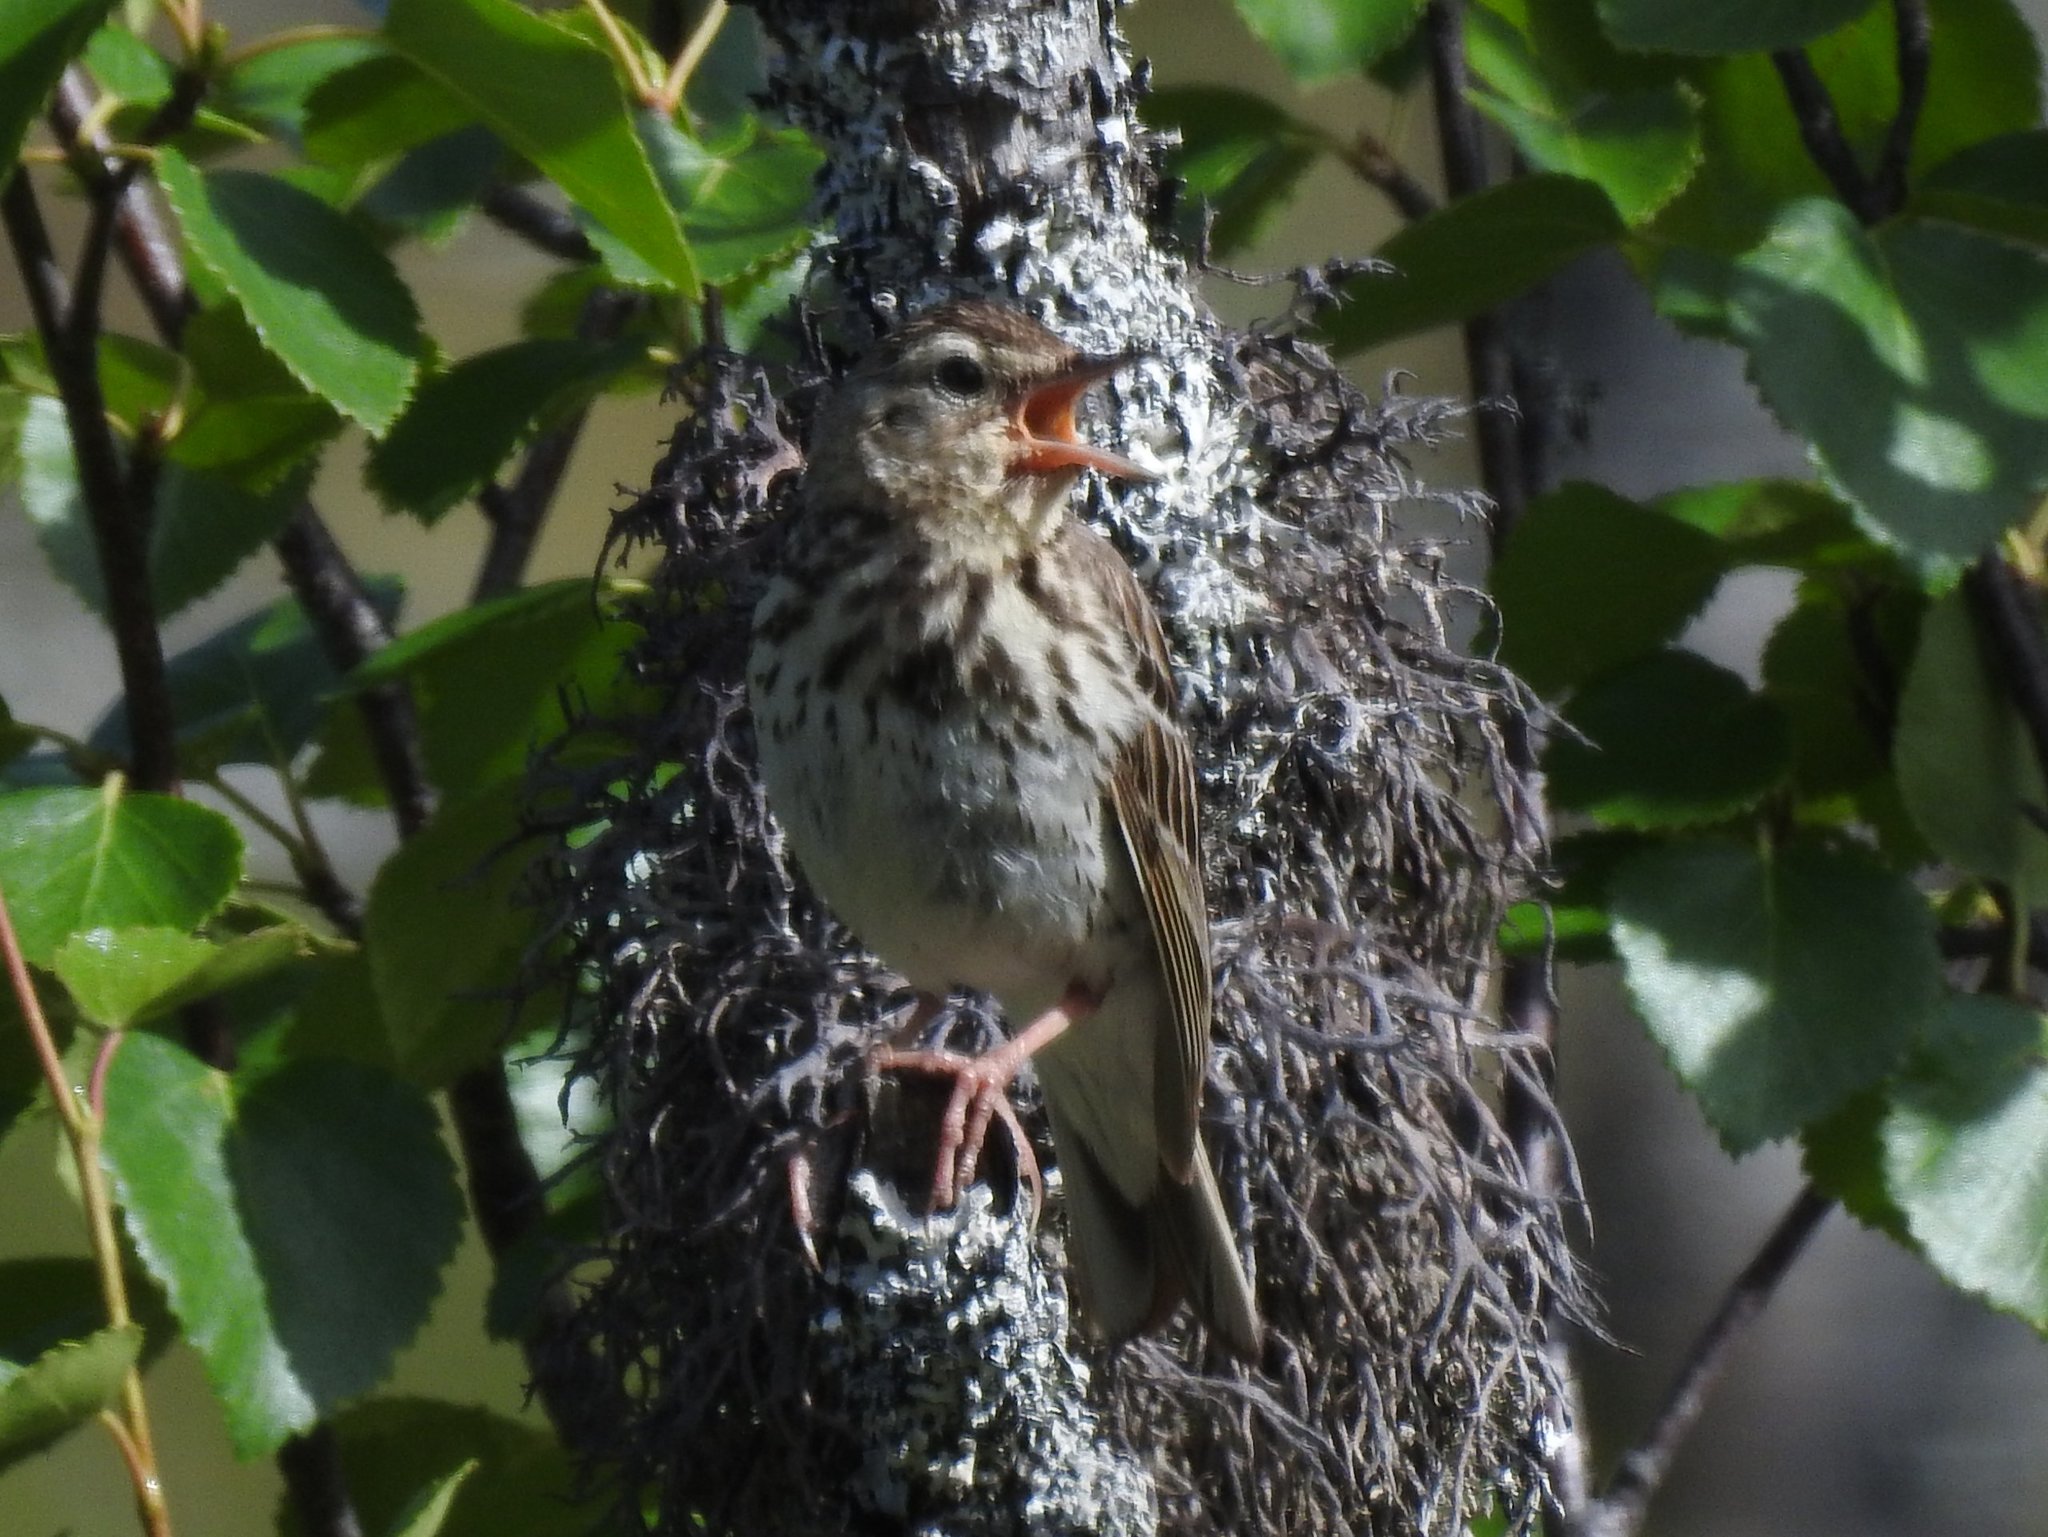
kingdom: Animalia
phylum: Chordata
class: Aves
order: Passeriformes
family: Motacillidae
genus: Anthus
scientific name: Anthus trivialis
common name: Tree pipit
